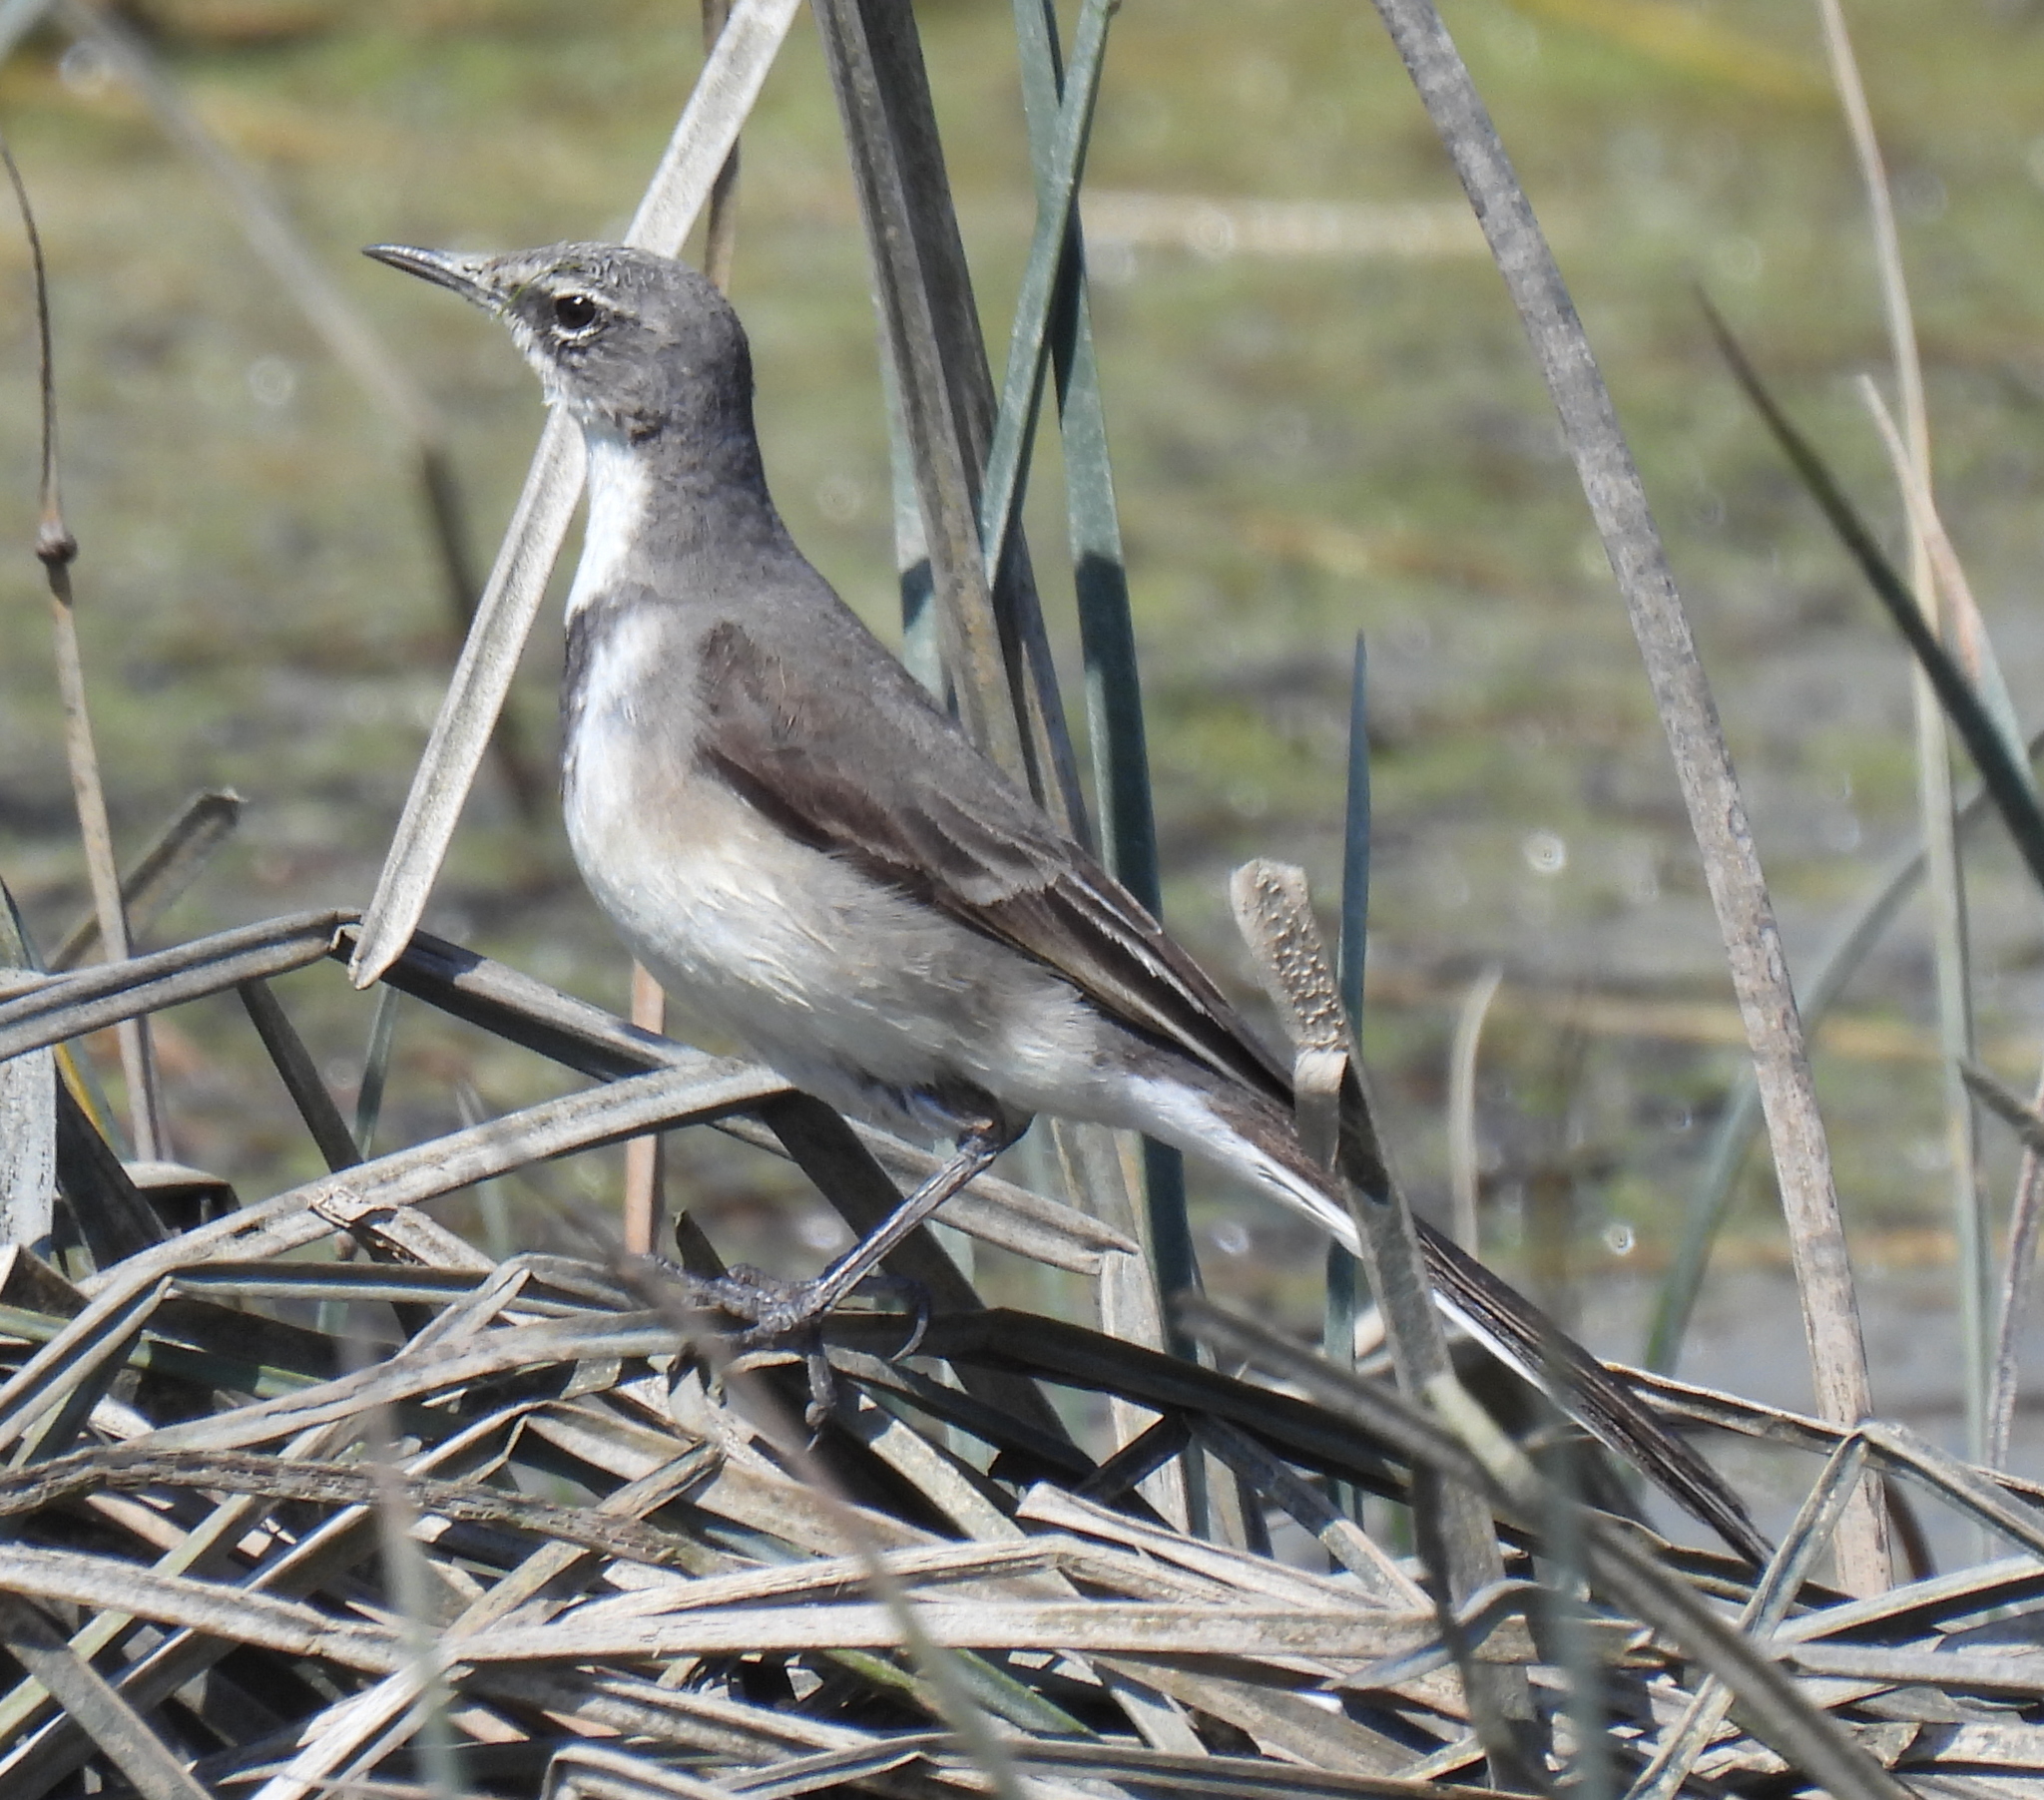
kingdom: Animalia
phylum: Chordata
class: Aves
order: Passeriformes
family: Motacillidae
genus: Motacilla
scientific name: Motacilla capensis
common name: Cape wagtail
